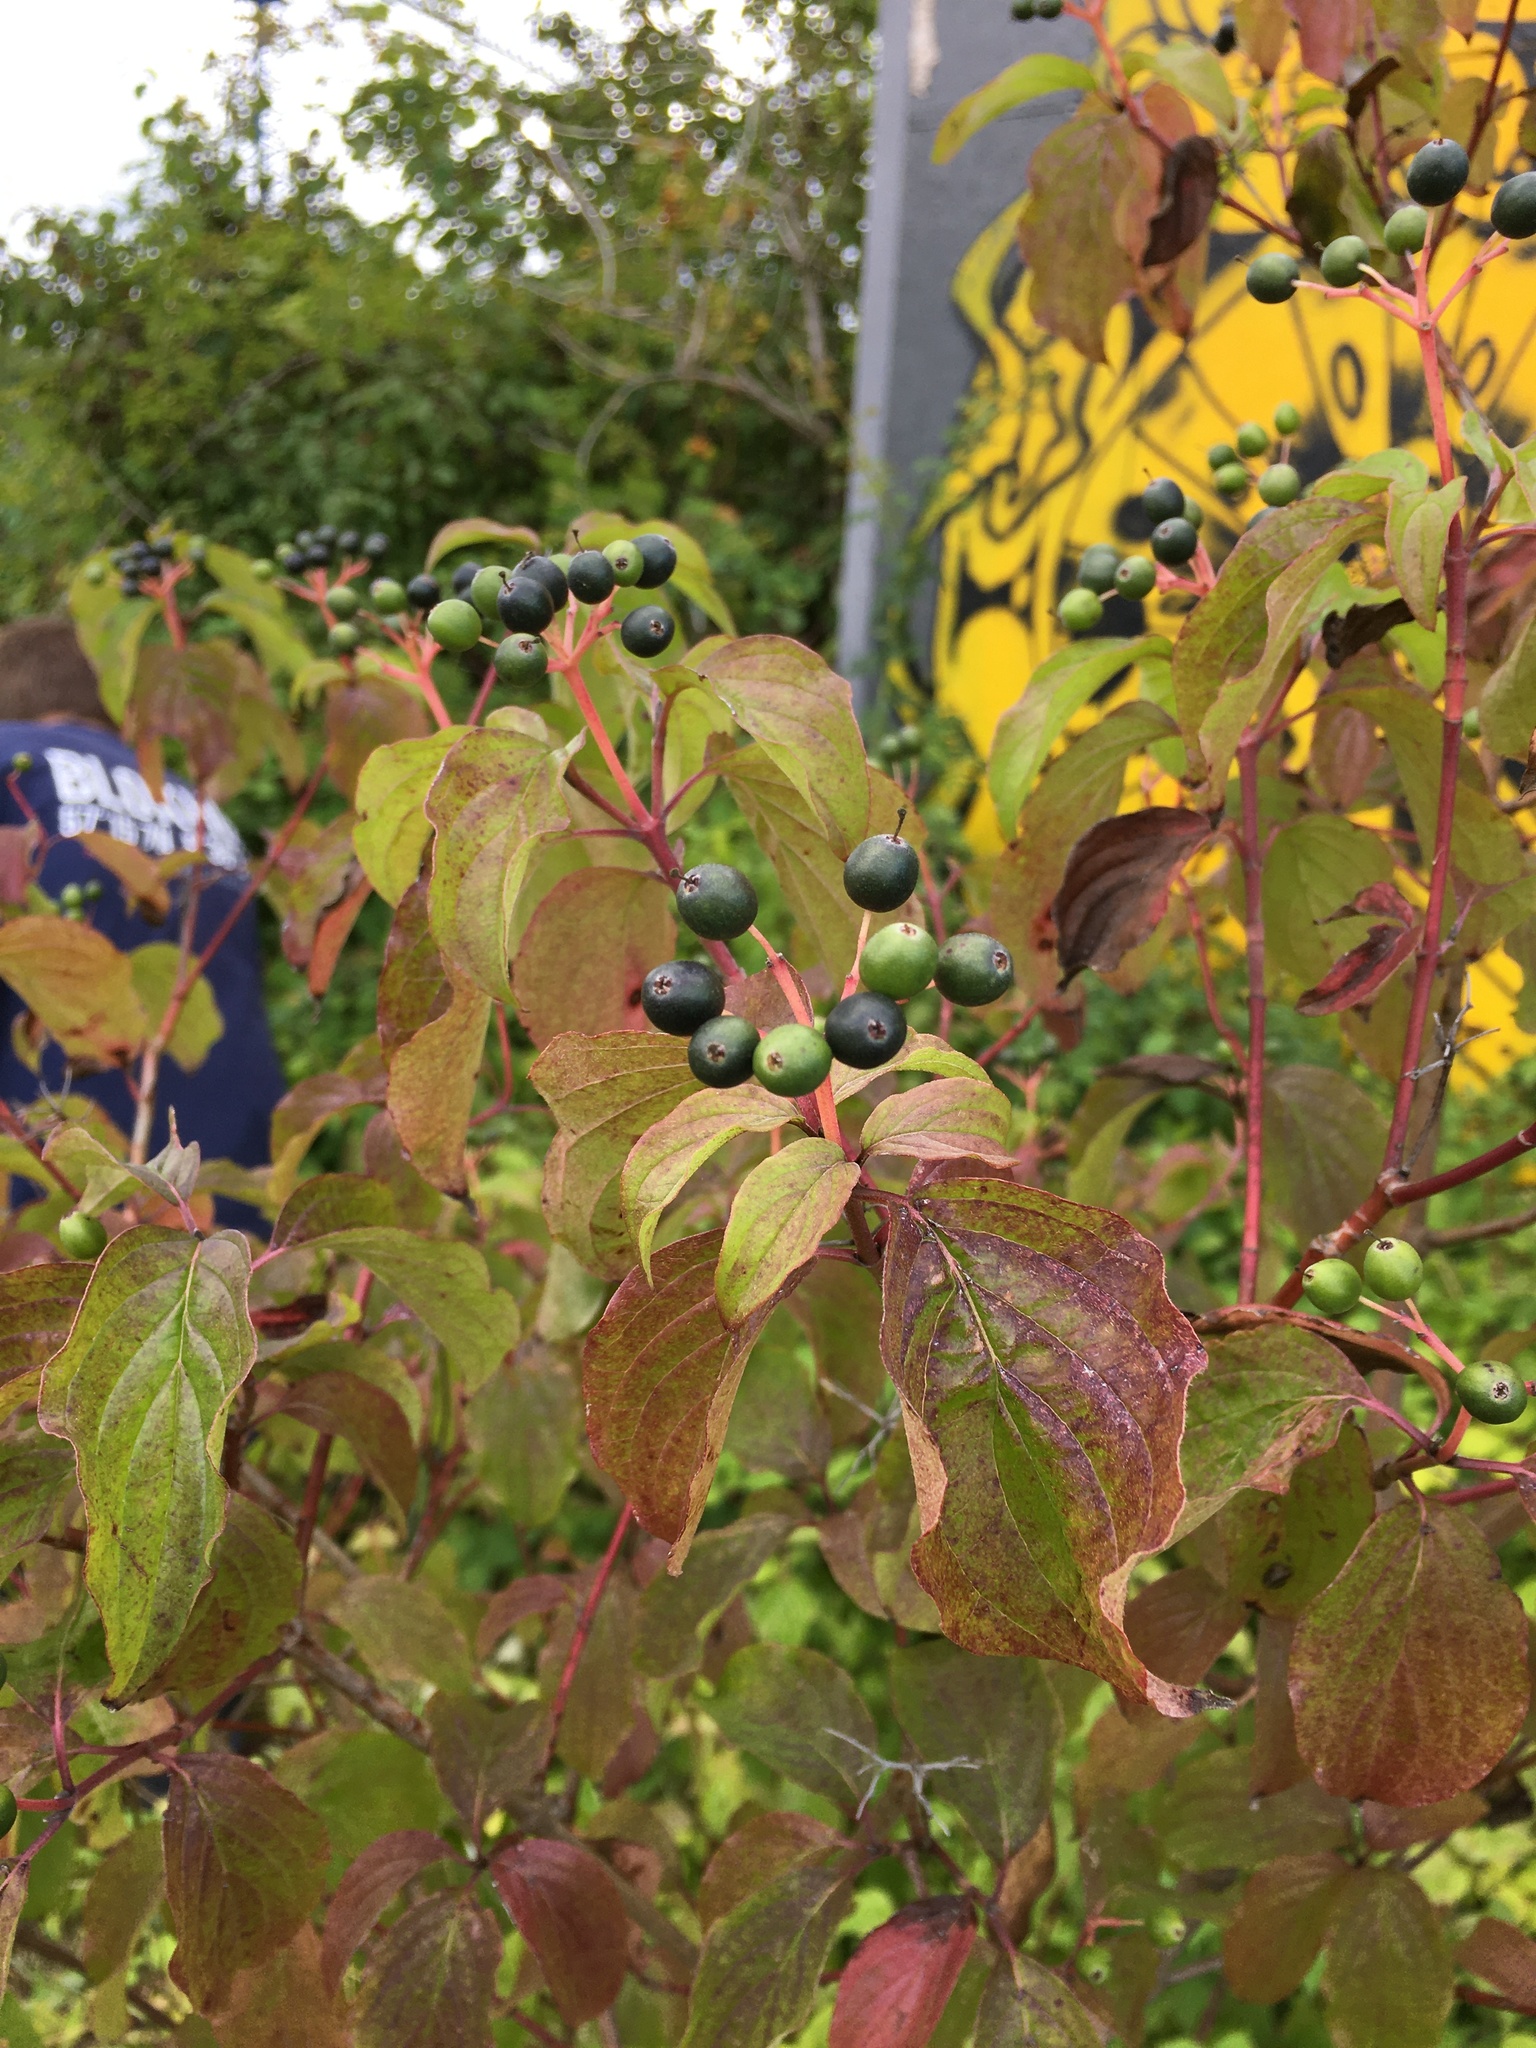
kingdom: Plantae
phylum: Tracheophyta
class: Magnoliopsida
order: Cornales
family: Cornaceae
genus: Cornus
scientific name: Cornus sanguinea
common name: Dogwood
